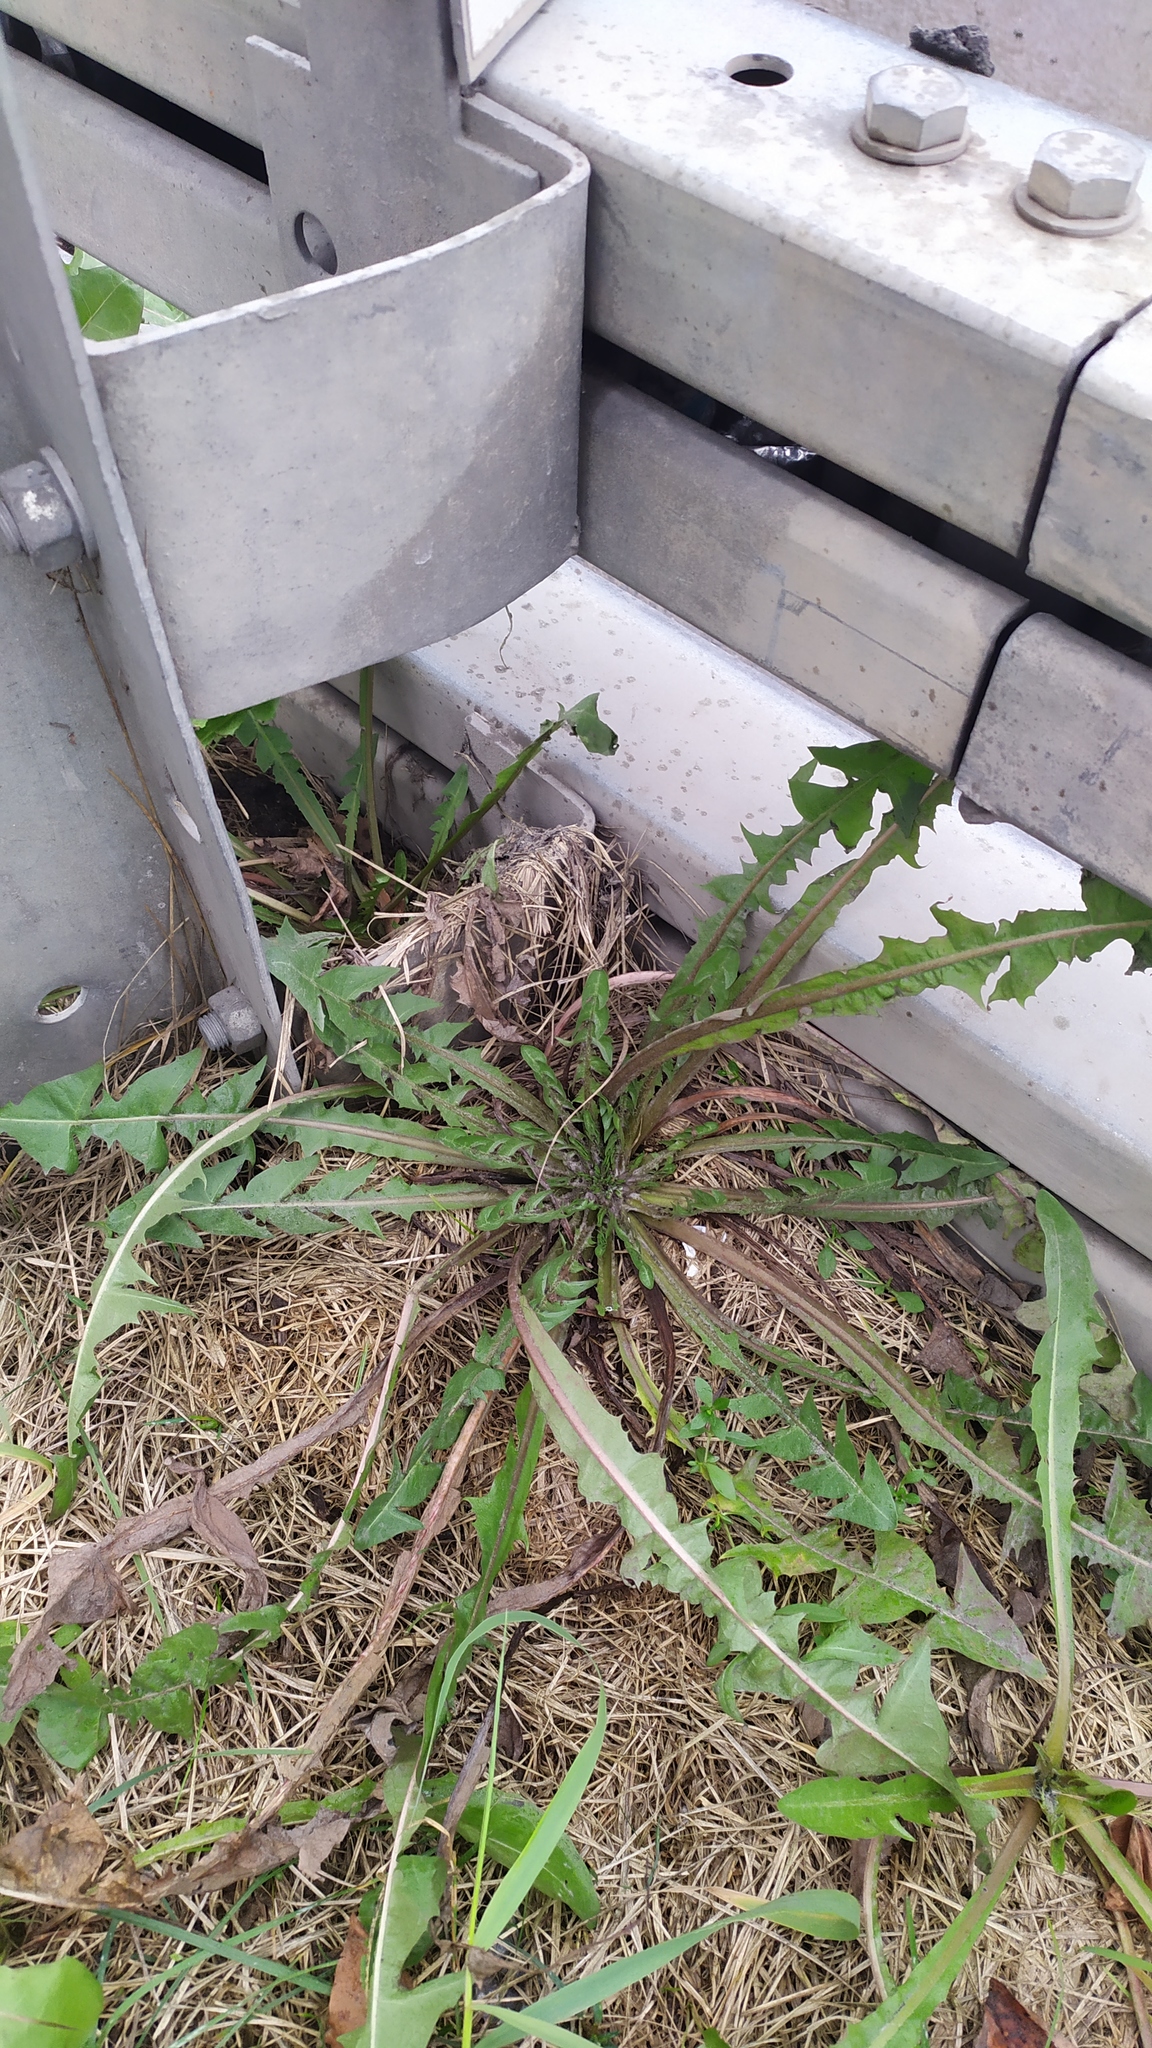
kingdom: Plantae
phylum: Tracheophyta
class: Magnoliopsida
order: Asterales
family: Asteraceae
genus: Taraxacum
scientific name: Taraxacum officinale
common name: Common dandelion
